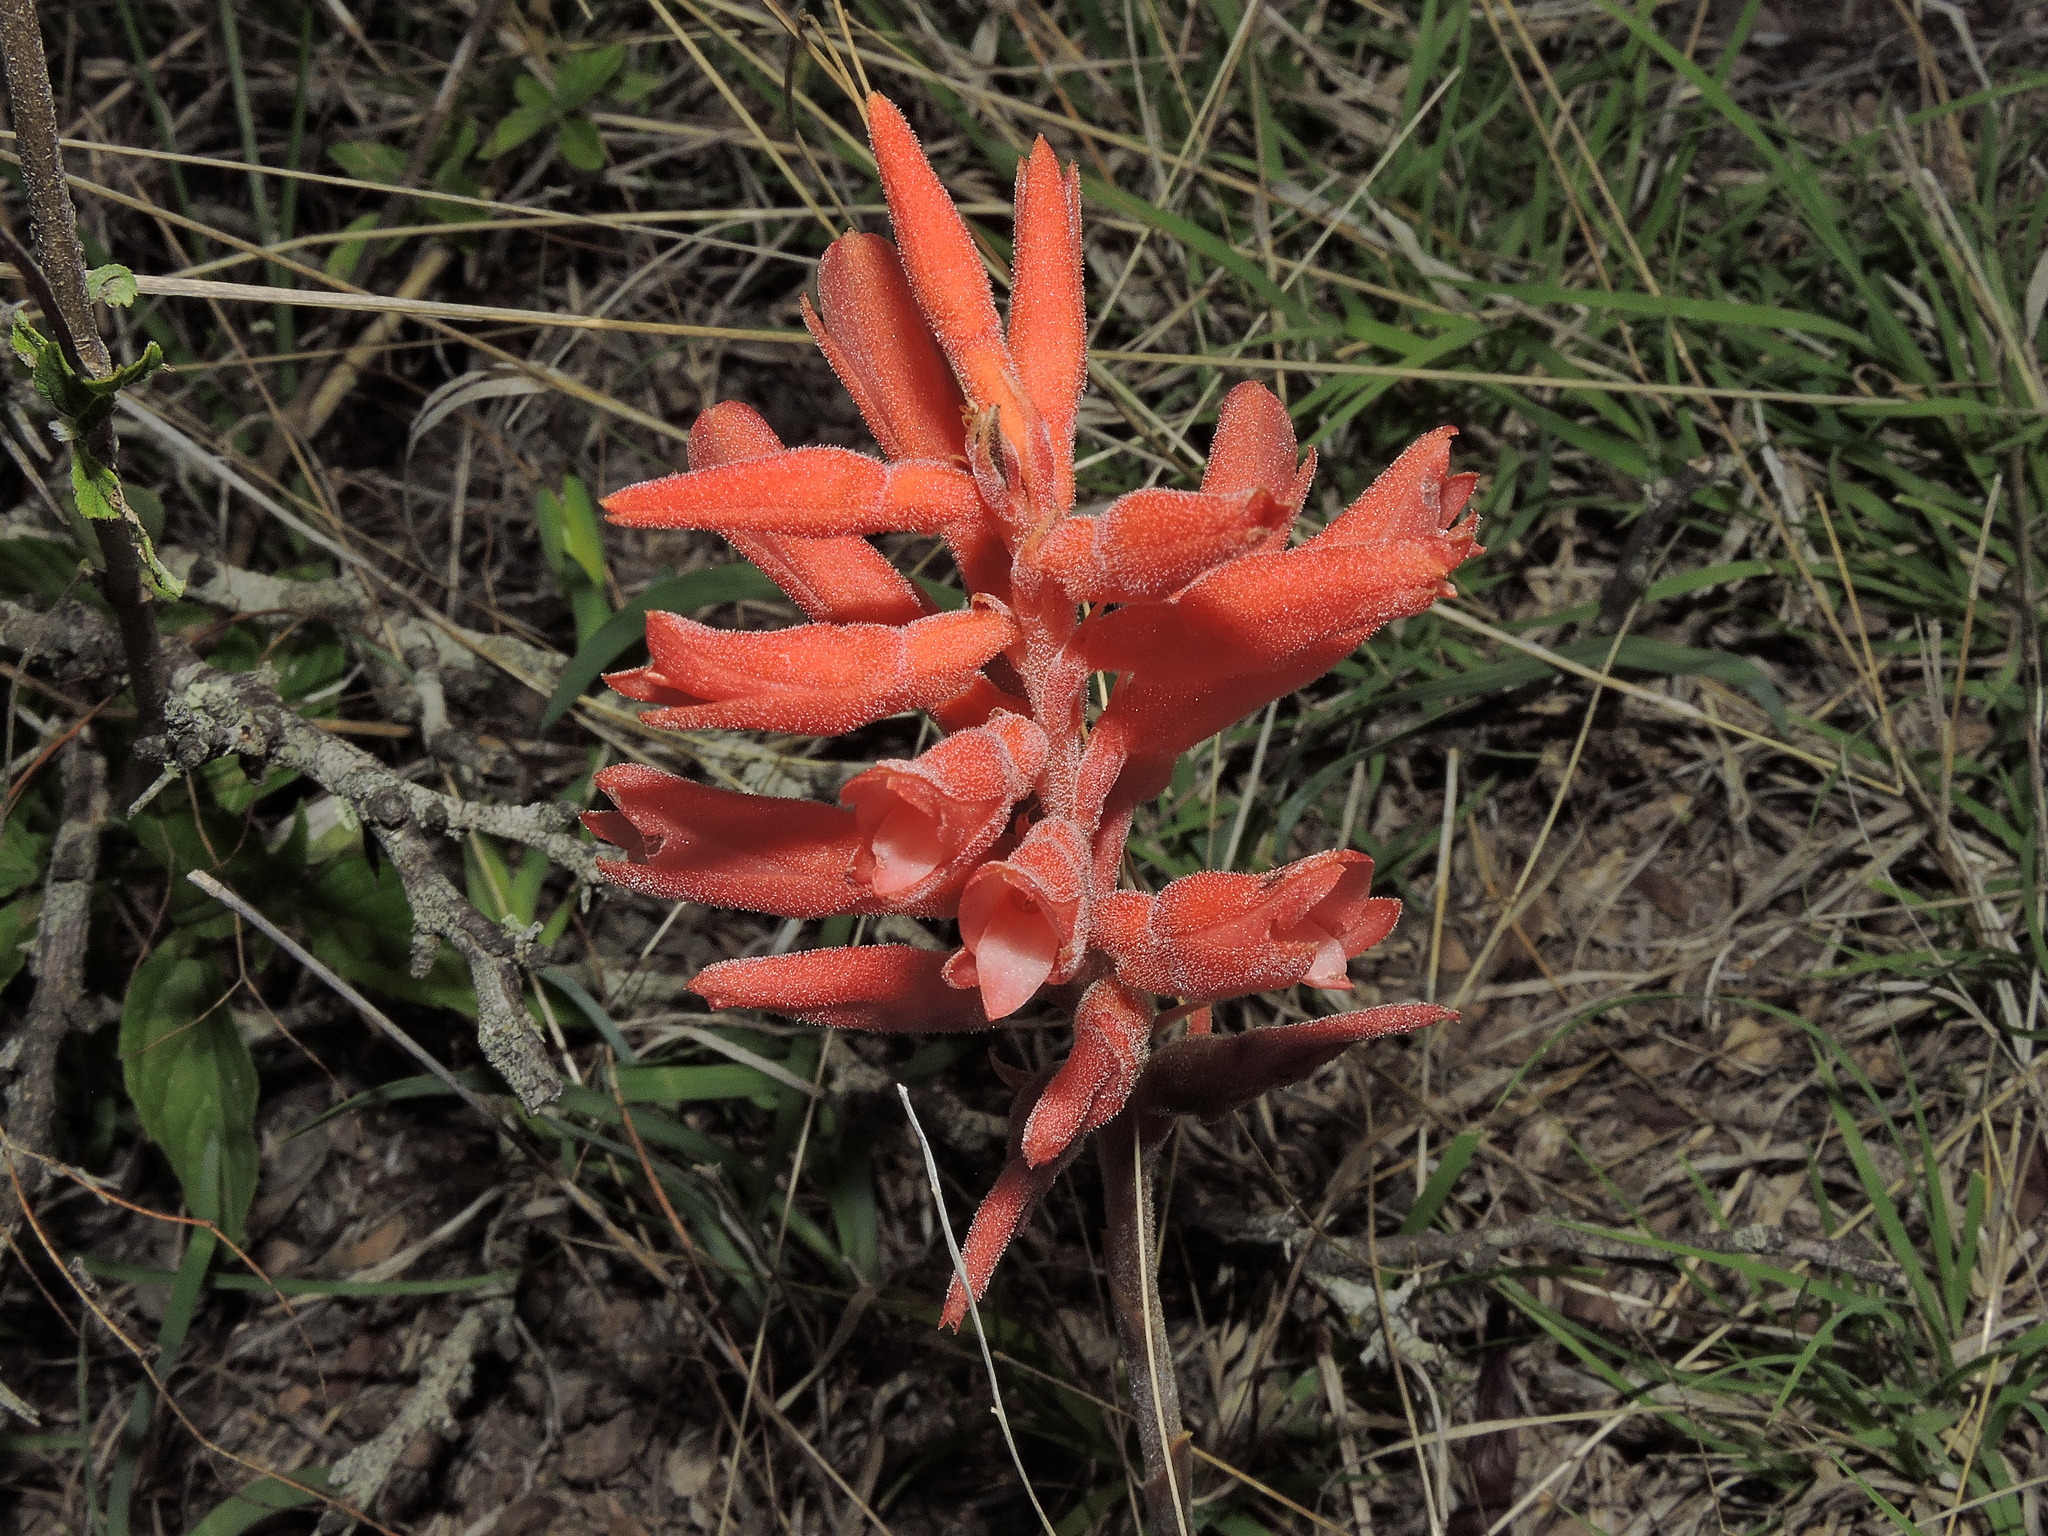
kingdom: Plantae
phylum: Tracheophyta
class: Liliopsida
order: Asparagales
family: Orchidaceae
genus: Sacoila
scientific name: Sacoila lanceolata
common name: Leafless beaked ladiestresses
